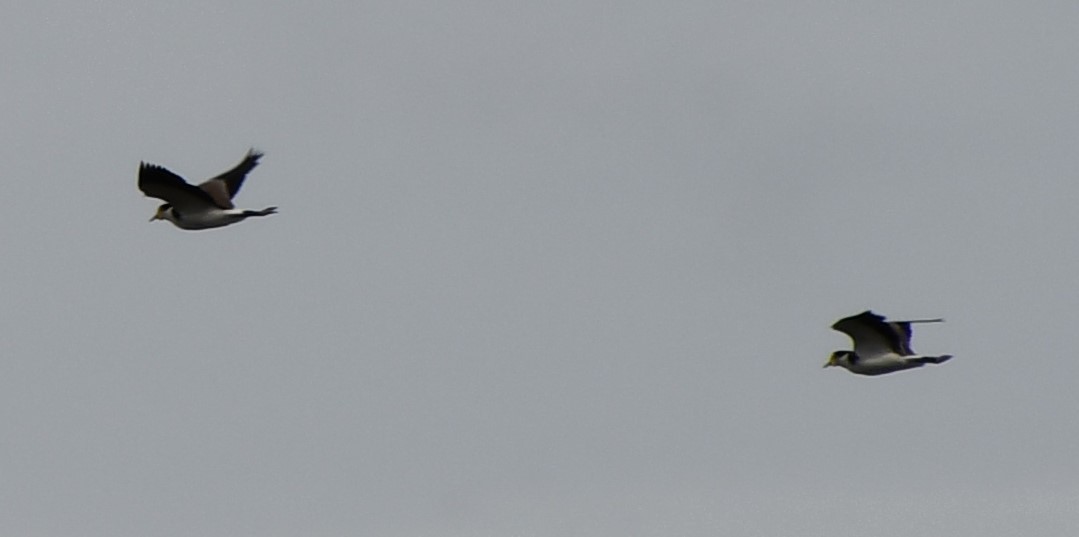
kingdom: Animalia
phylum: Chordata
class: Aves
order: Charadriiformes
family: Charadriidae
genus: Vanellus
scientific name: Vanellus miles
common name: Masked lapwing
